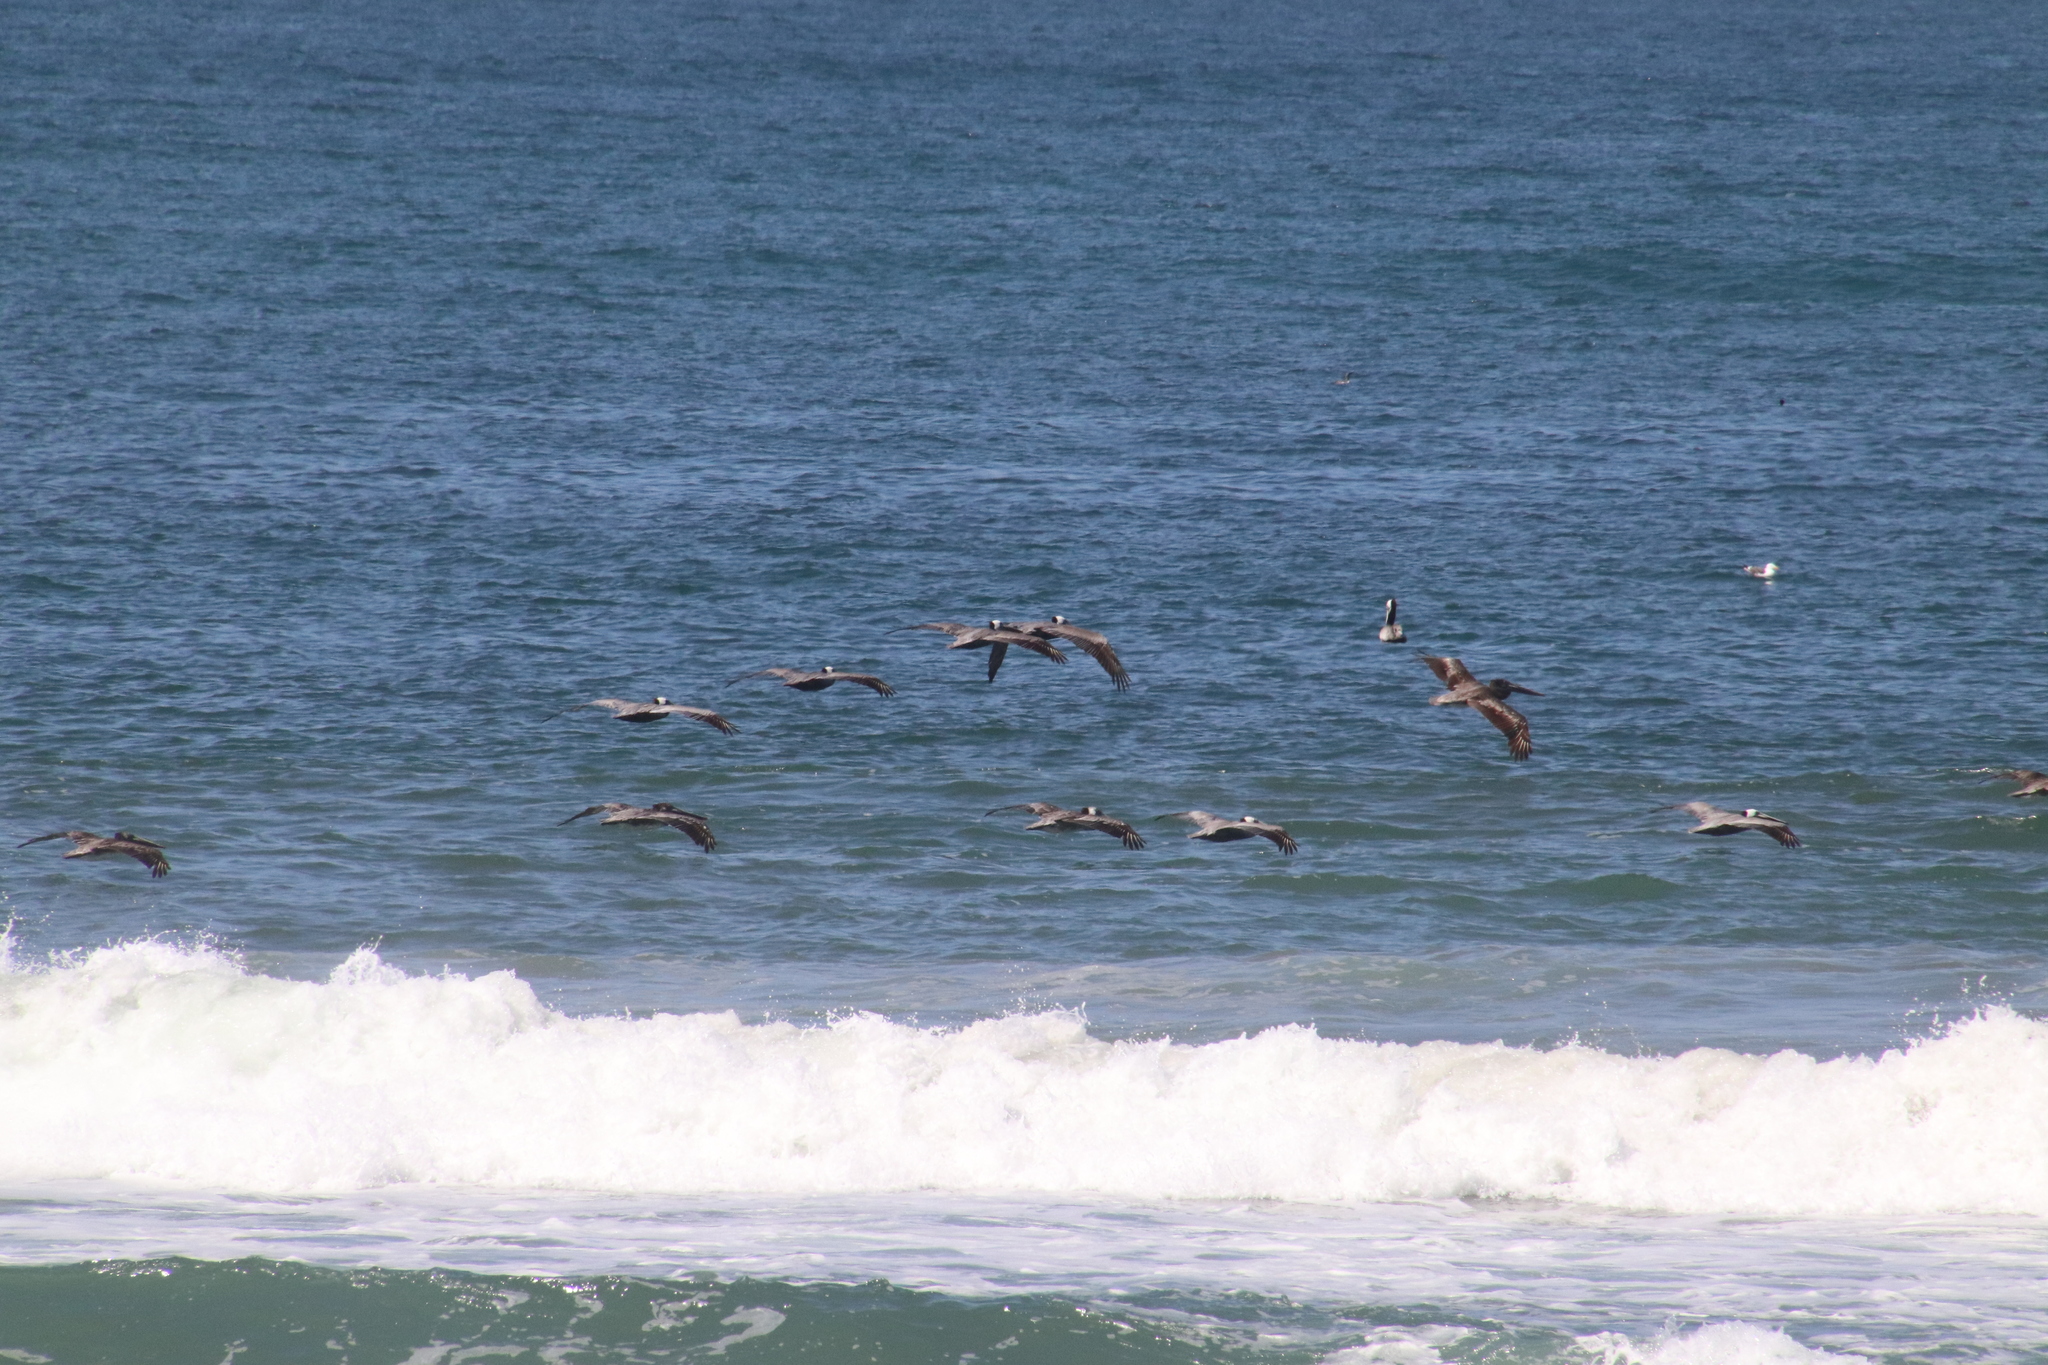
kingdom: Animalia
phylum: Chordata
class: Aves
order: Pelecaniformes
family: Pelecanidae
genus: Pelecanus
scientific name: Pelecanus occidentalis
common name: Brown pelican
